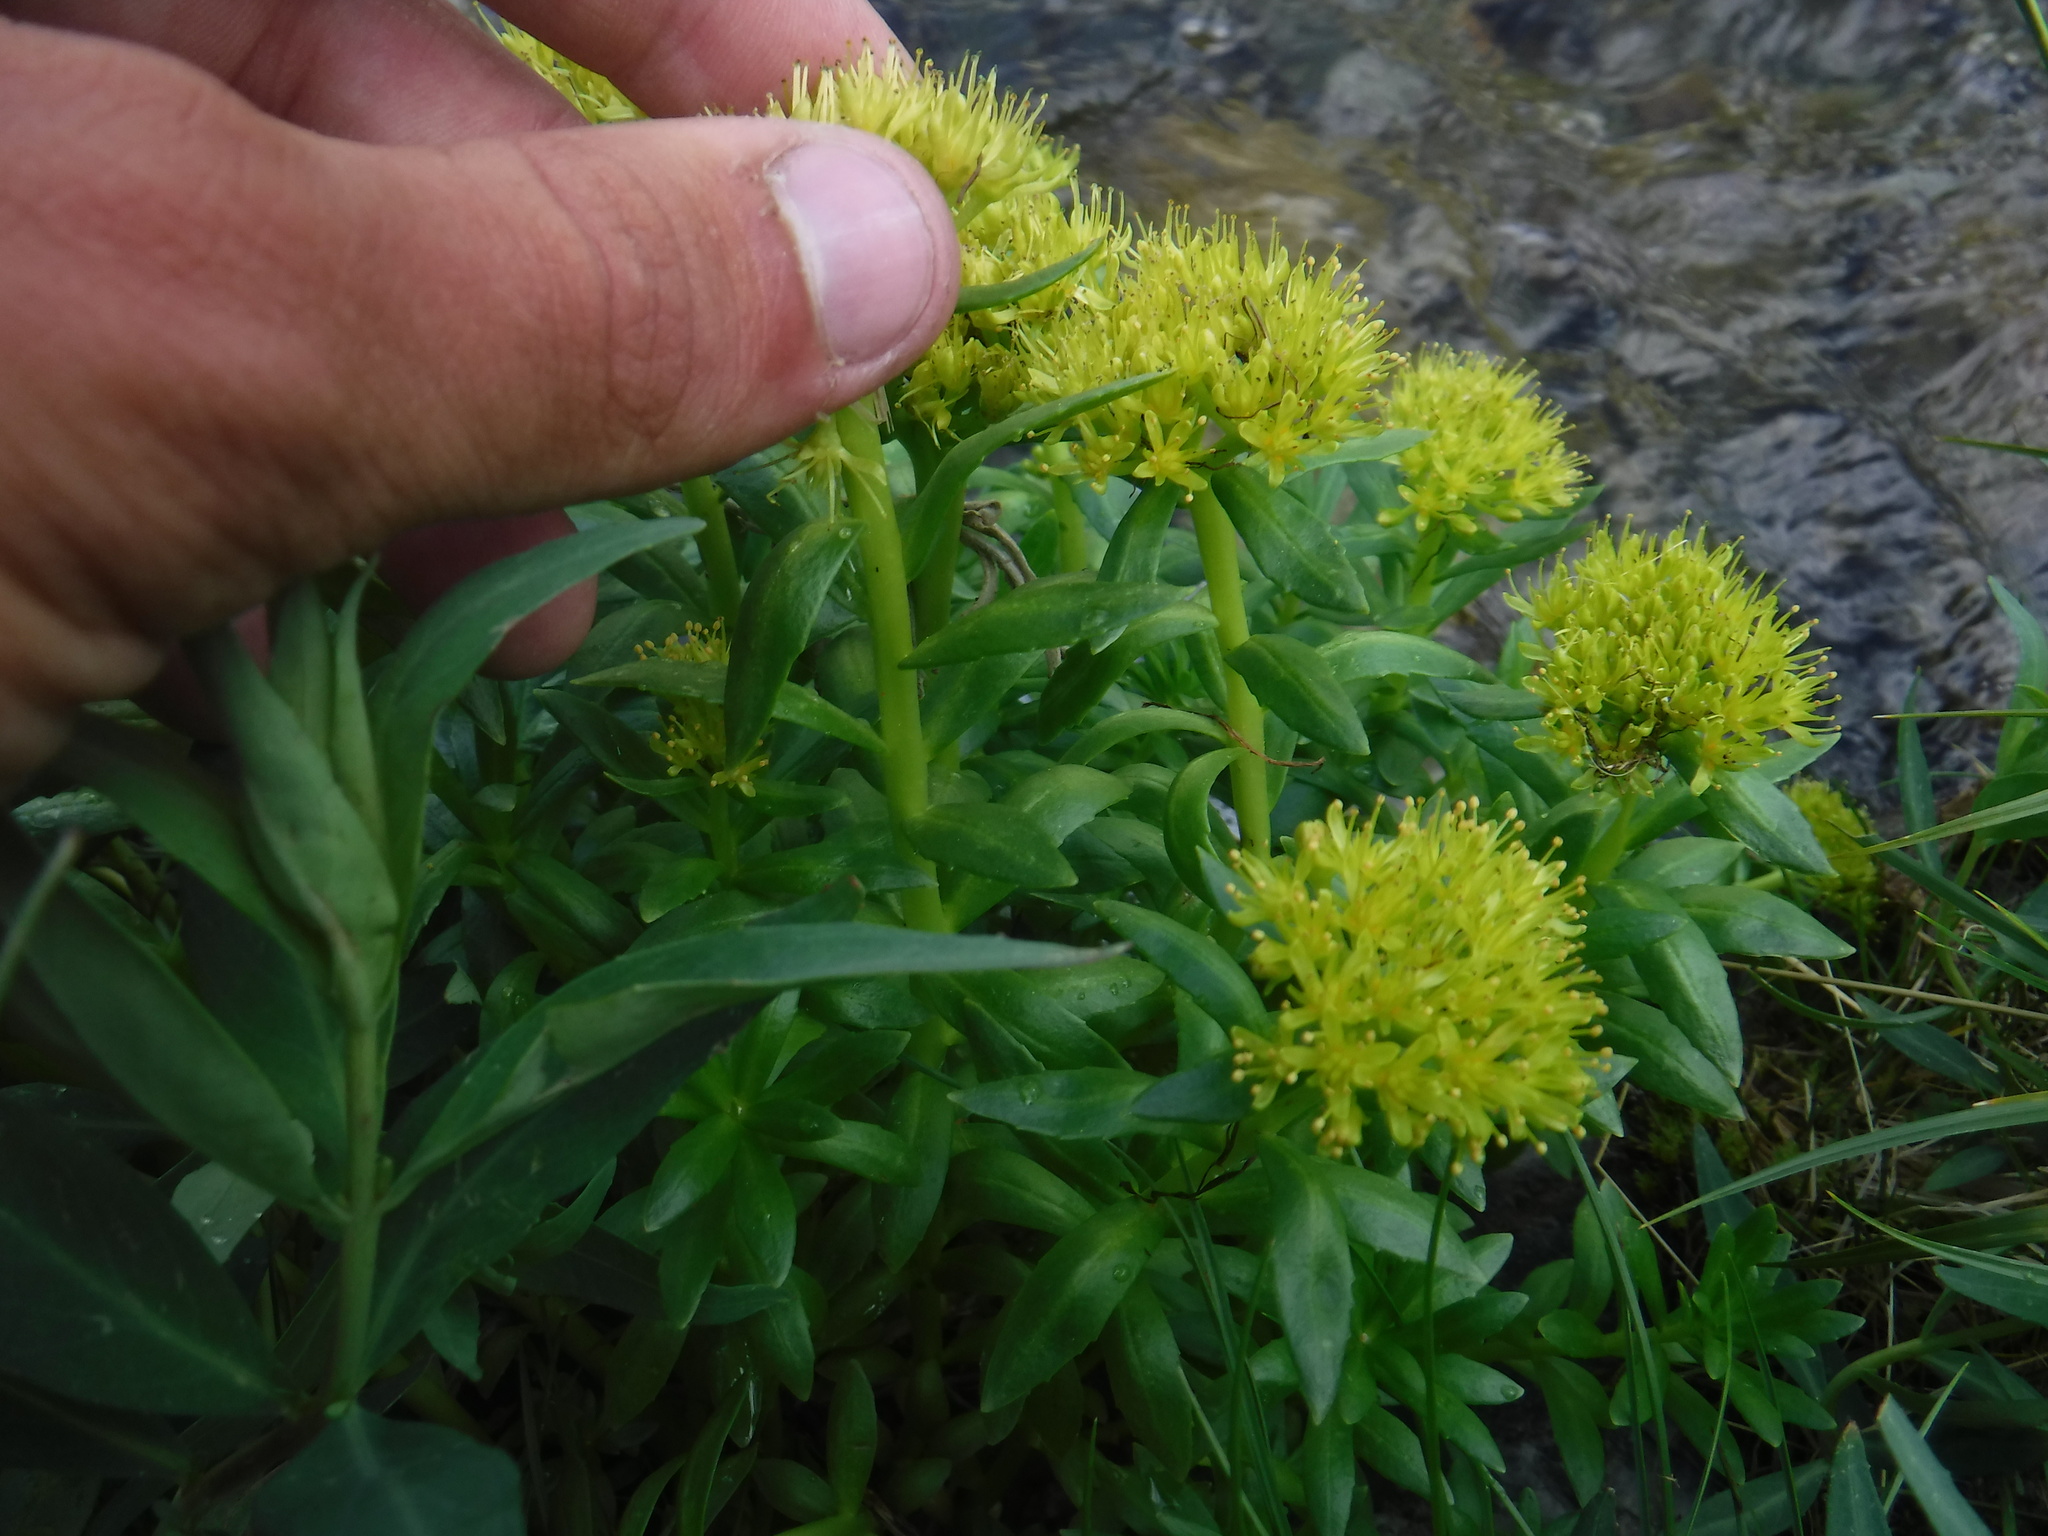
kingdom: Plantae
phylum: Tracheophyta
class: Magnoliopsida
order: Saxifragales
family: Crassulaceae
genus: Rhodiola
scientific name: Rhodiola rosea
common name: Roseroot
